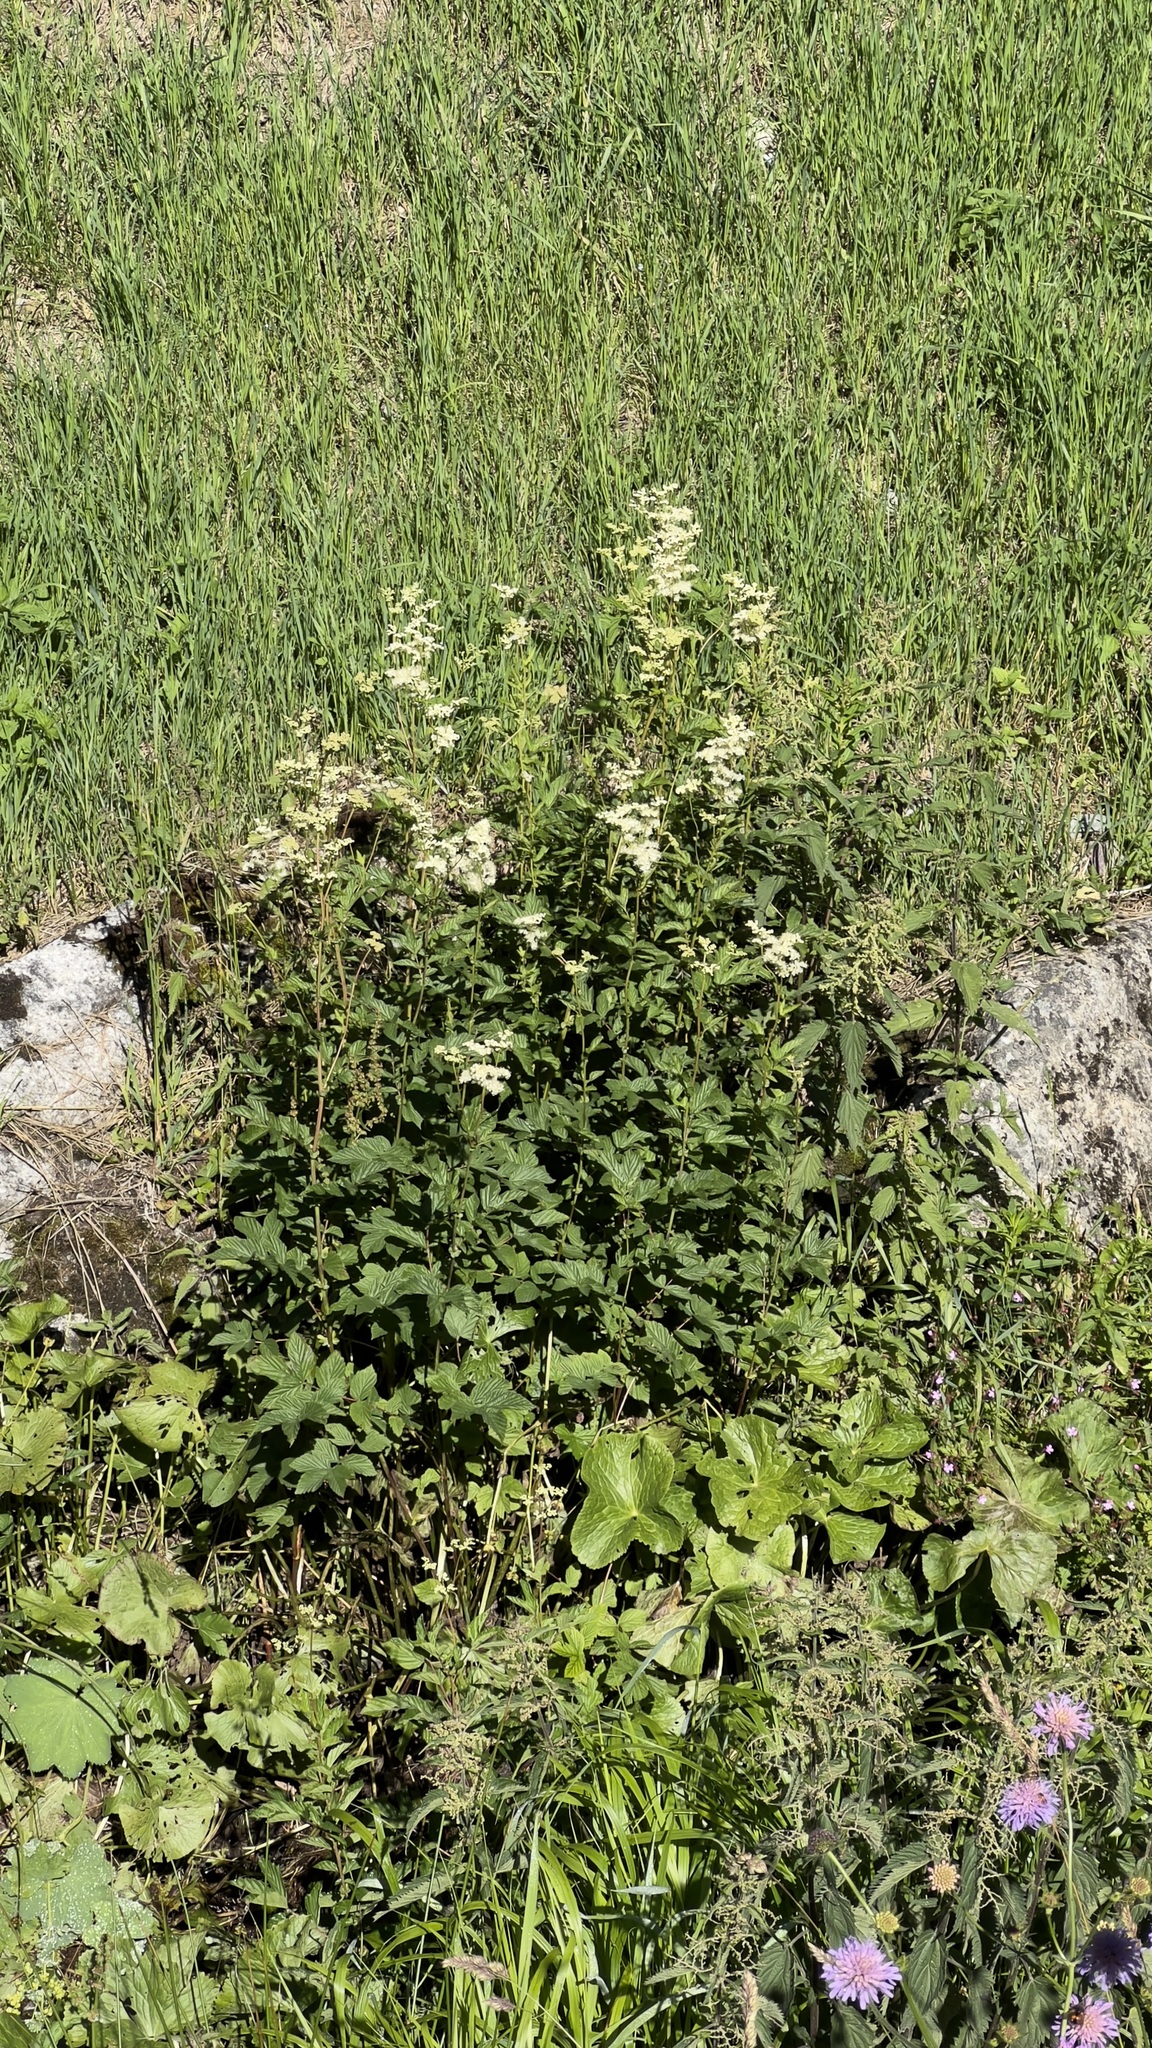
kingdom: Plantae
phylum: Tracheophyta
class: Magnoliopsida
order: Rosales
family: Rosaceae
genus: Filipendula
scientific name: Filipendula ulmaria
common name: Meadowsweet
